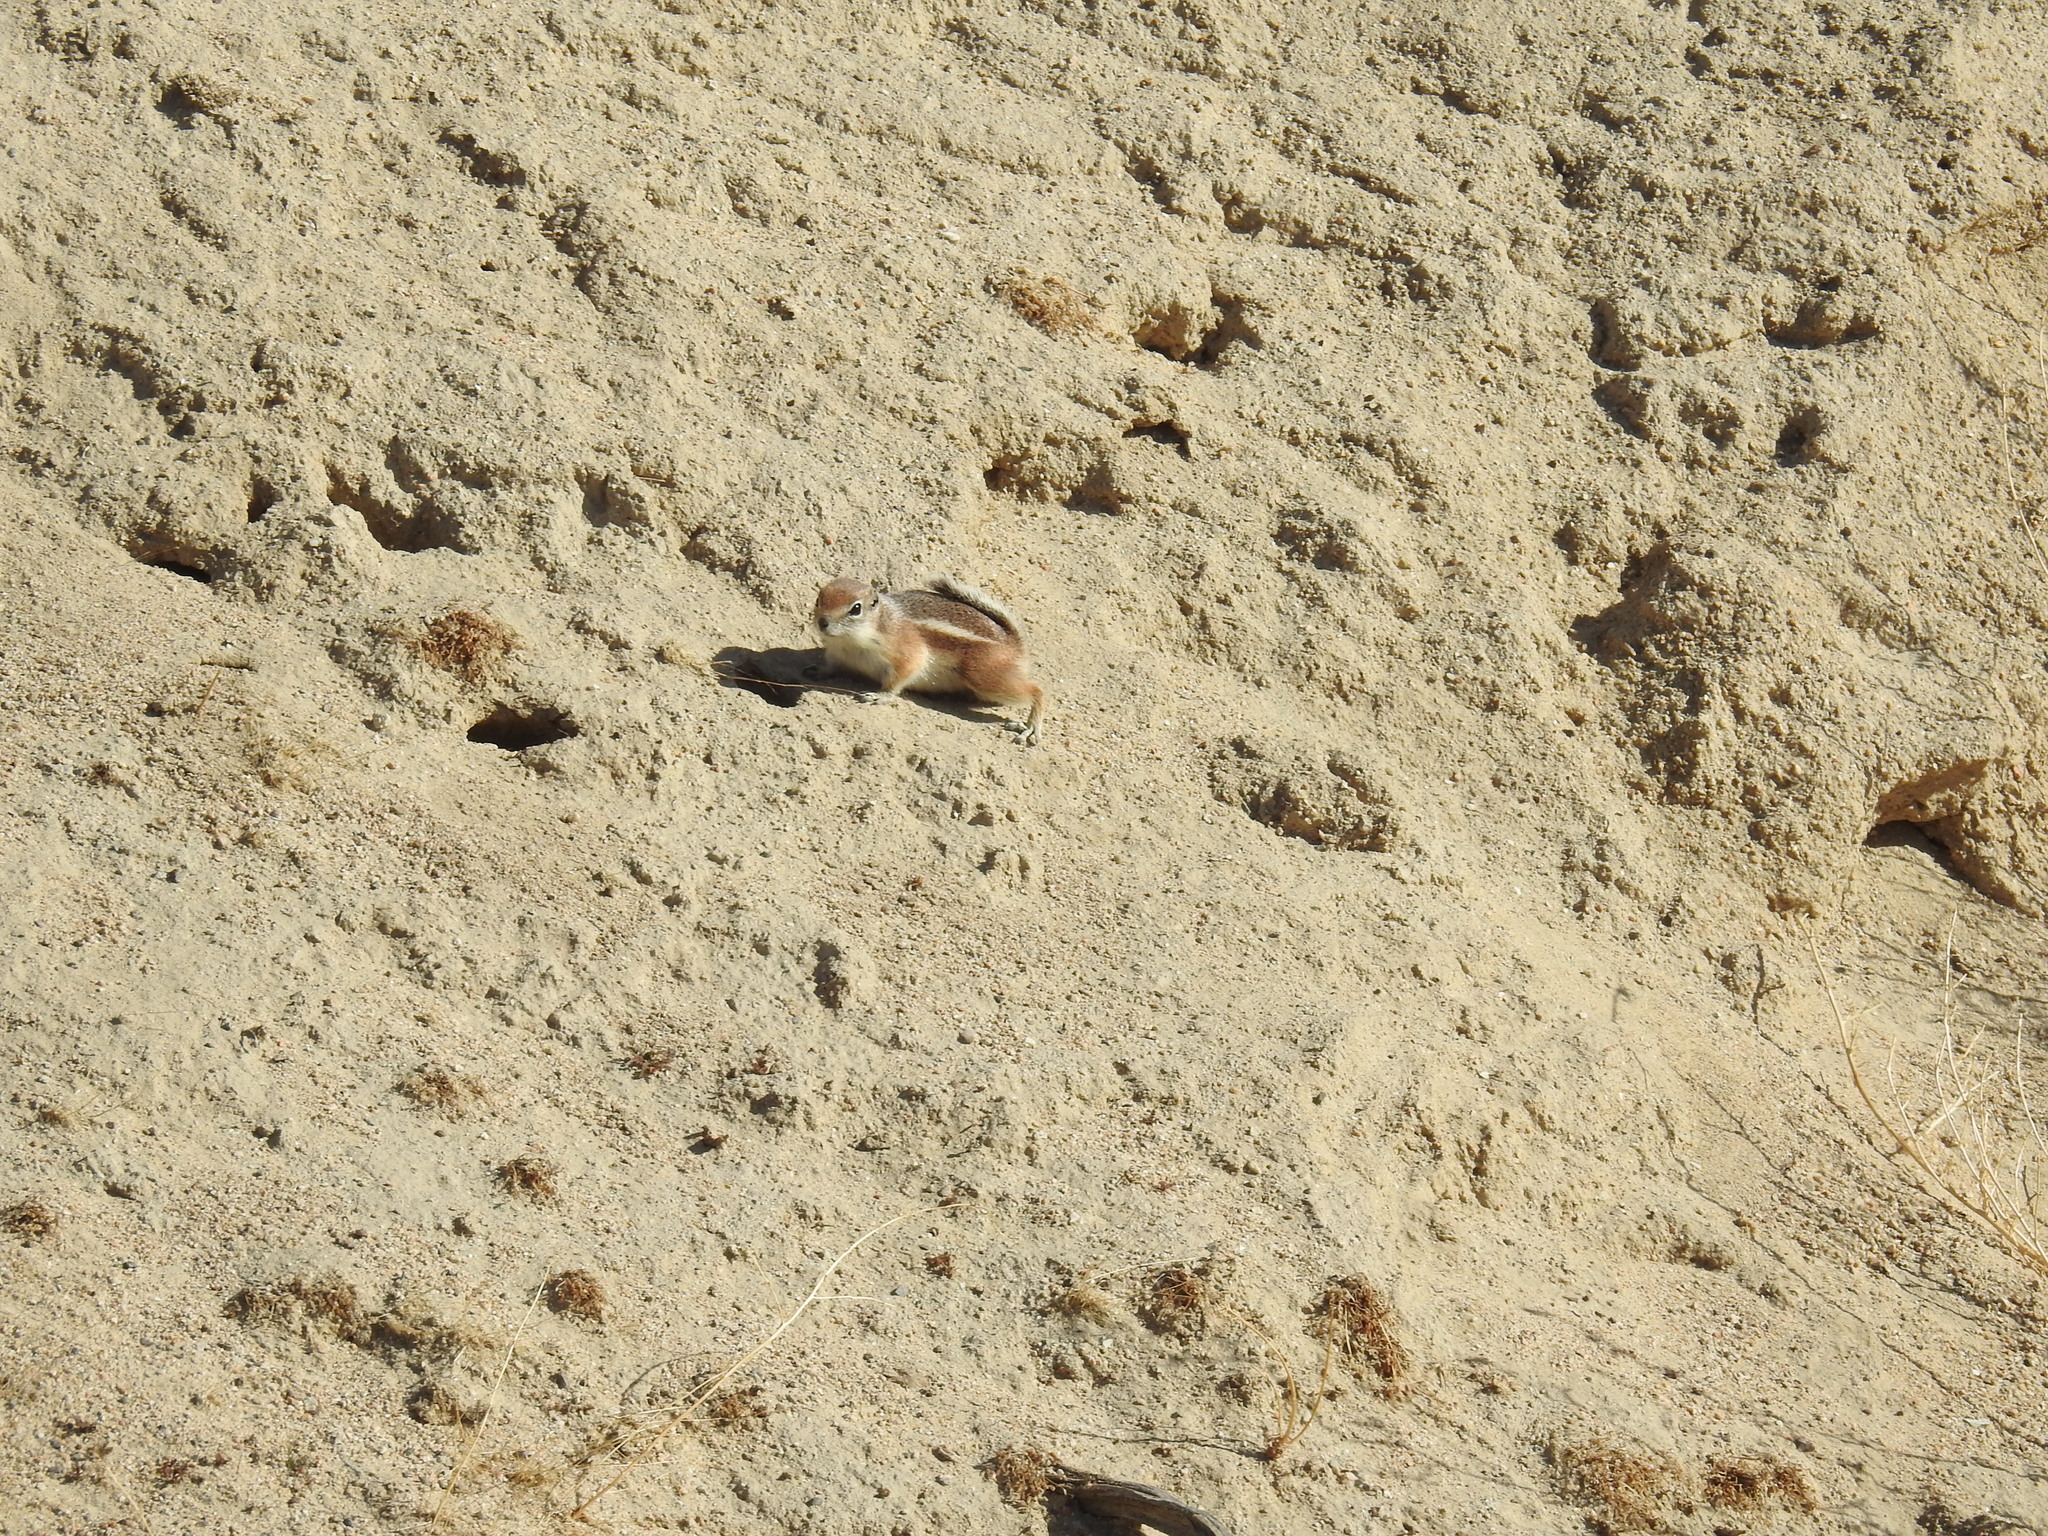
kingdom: Animalia
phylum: Chordata
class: Mammalia
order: Rodentia
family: Sciuridae
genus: Ammospermophilus
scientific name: Ammospermophilus leucurus
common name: White-tailed antelope squirrel
